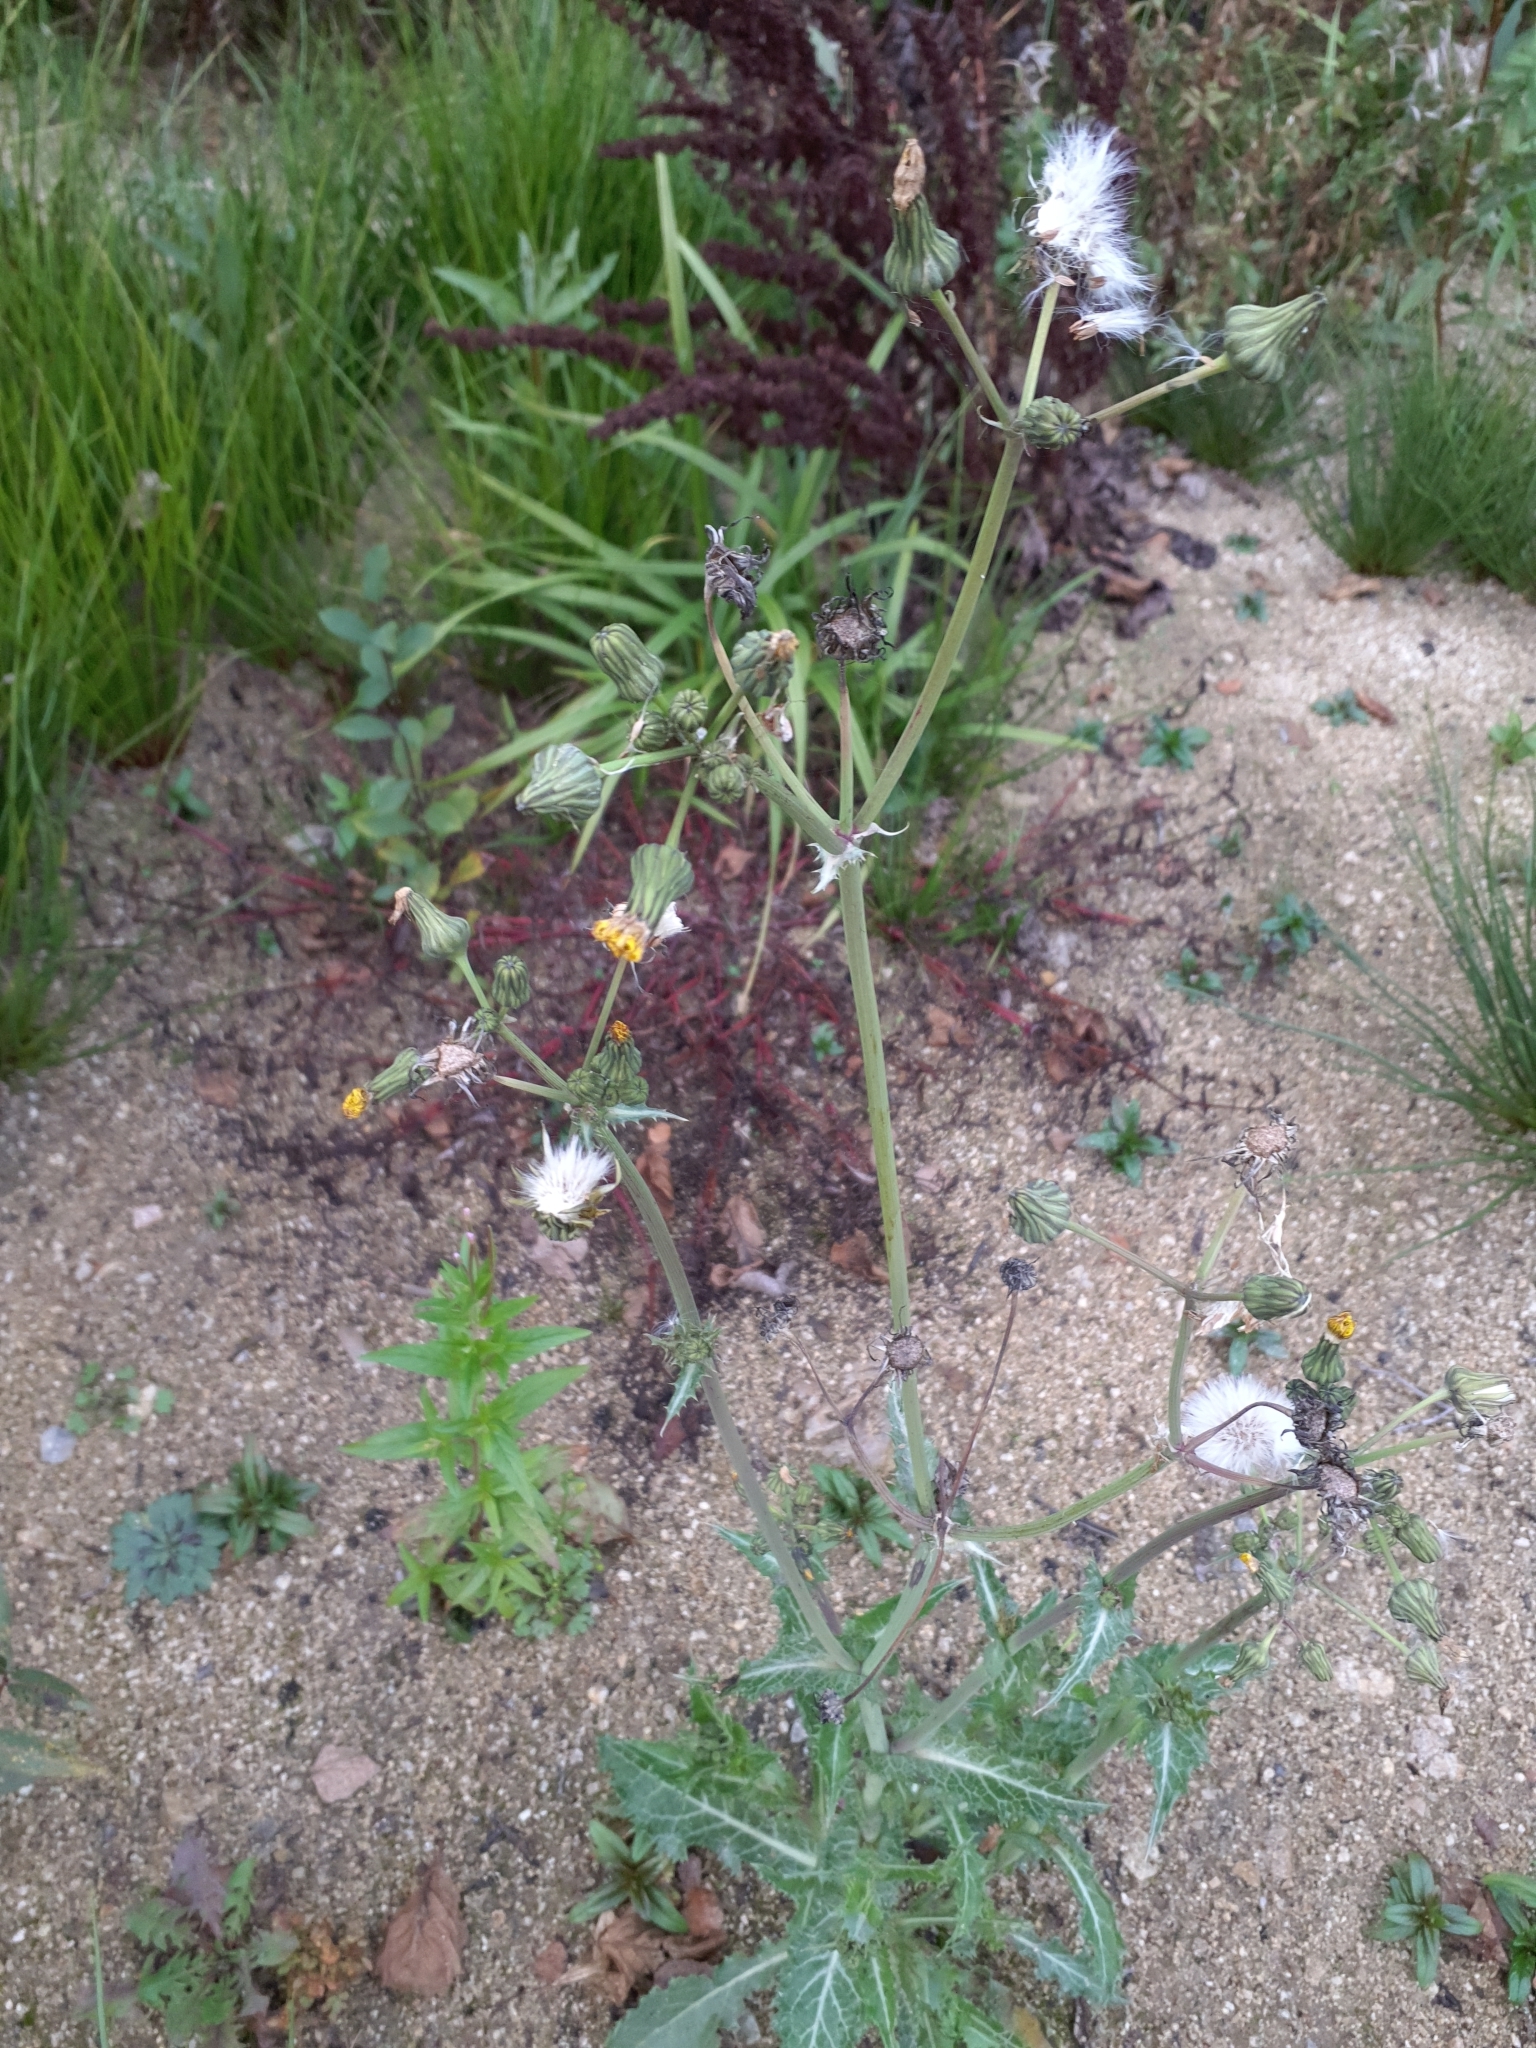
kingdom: Plantae
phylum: Tracheophyta
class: Magnoliopsida
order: Asterales
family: Asteraceae
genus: Sonchus
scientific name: Sonchus asper
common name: Prickly sow-thistle
